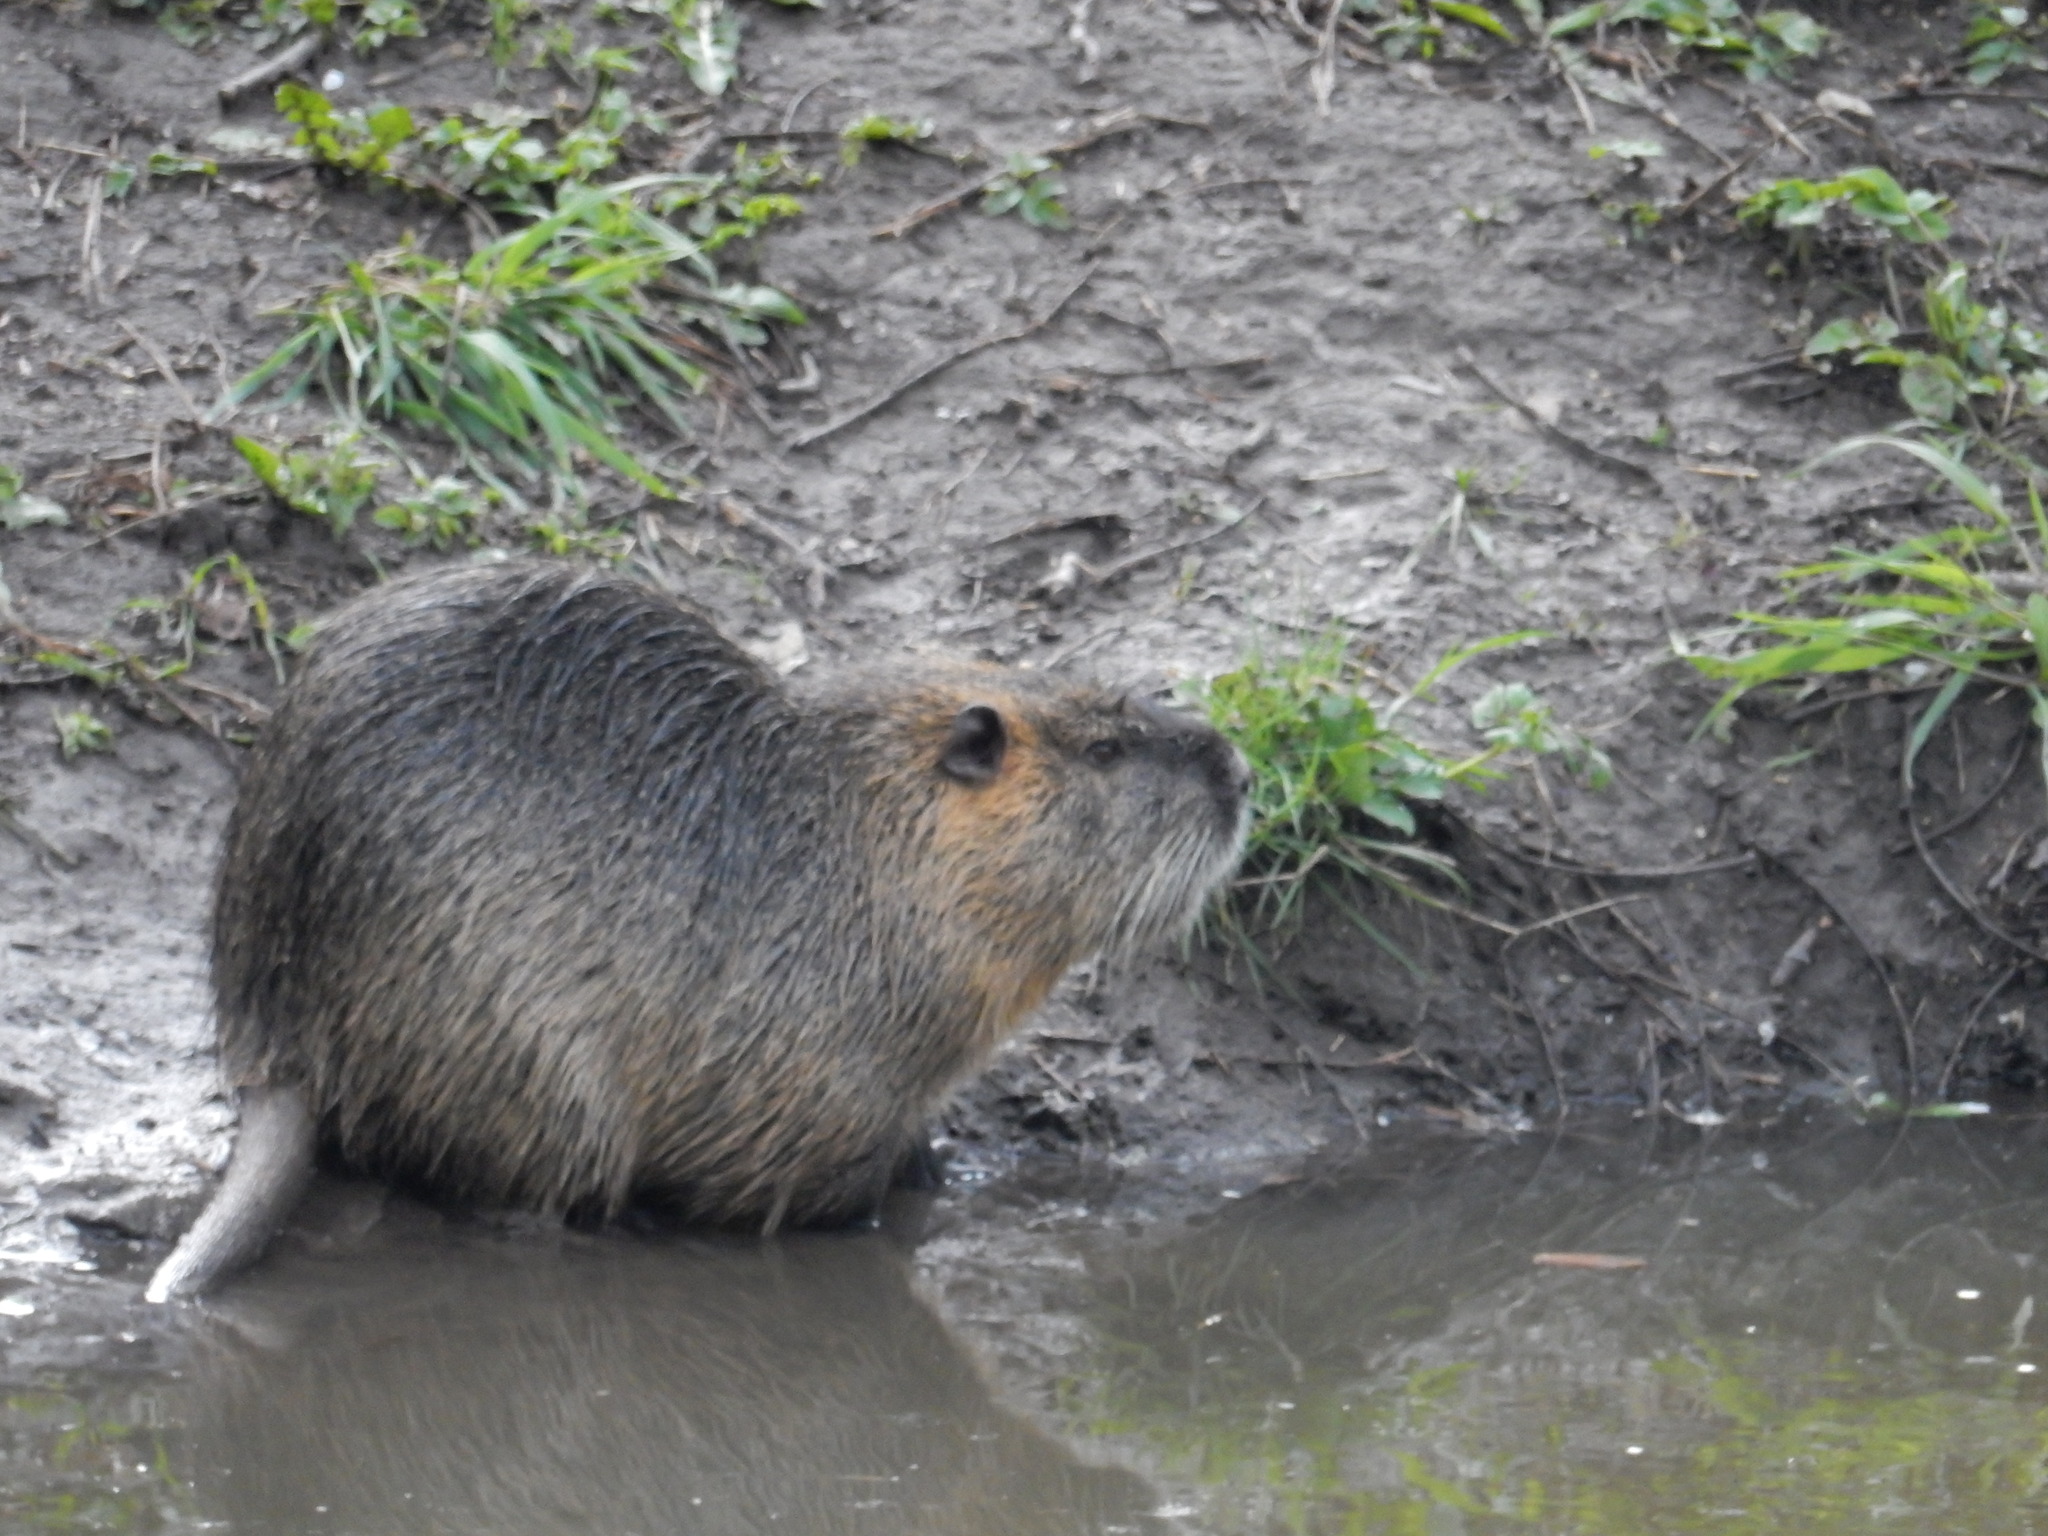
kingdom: Animalia
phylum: Chordata
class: Mammalia
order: Rodentia
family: Myocastoridae
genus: Myocastor
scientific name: Myocastor coypus
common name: Coypu
